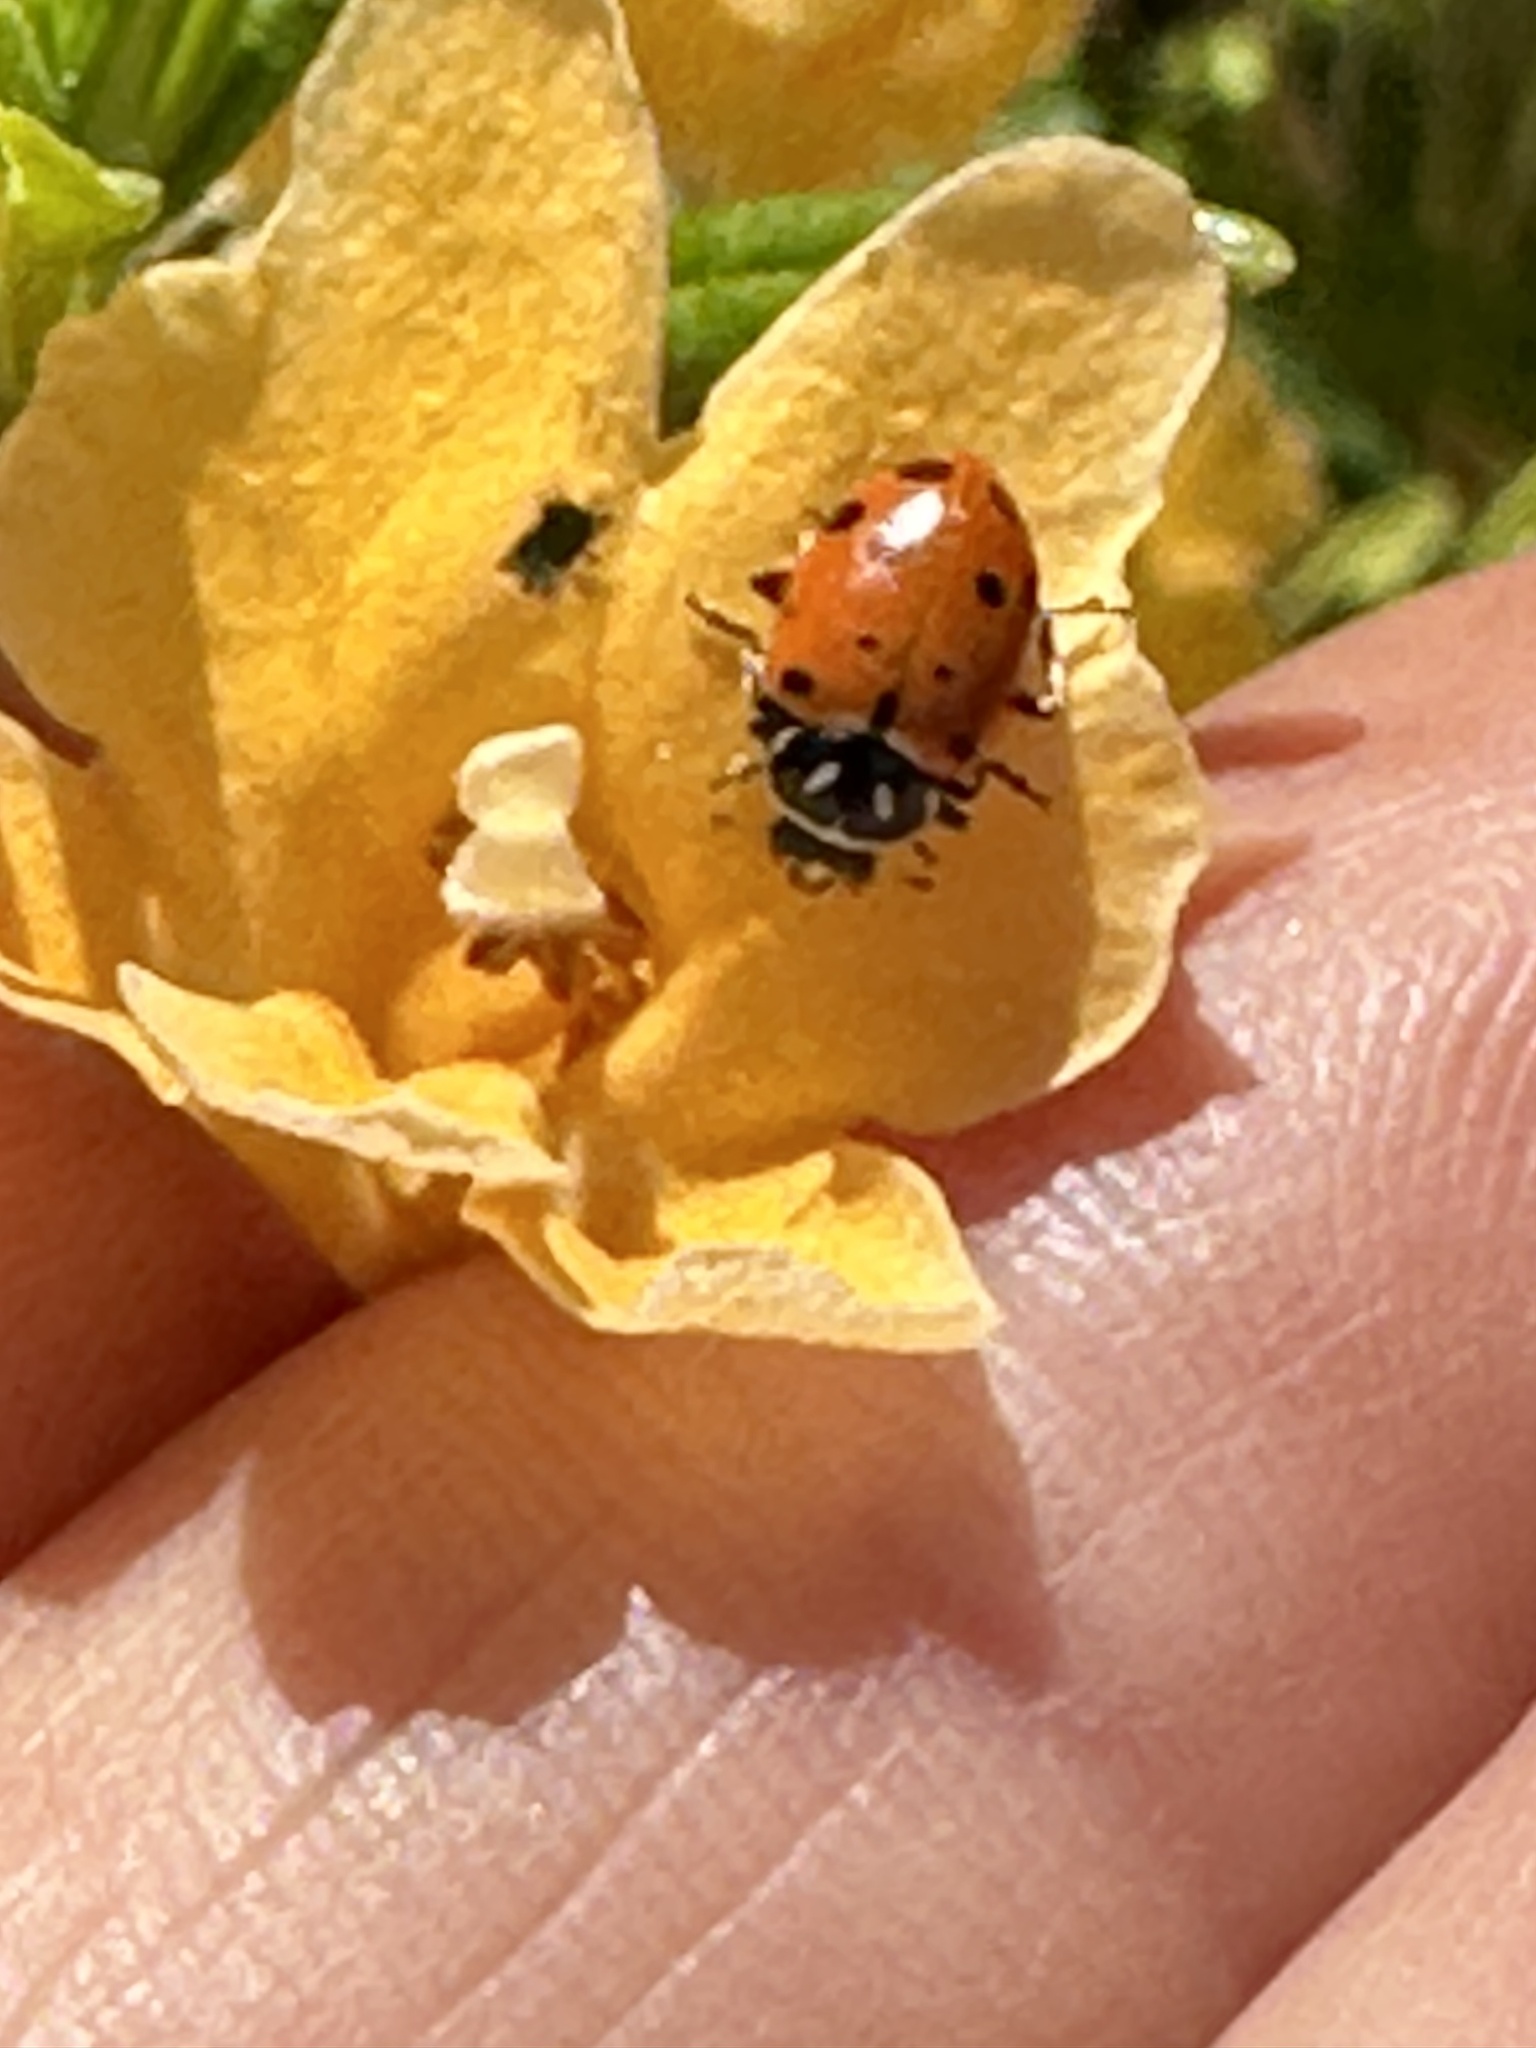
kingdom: Animalia
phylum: Arthropoda
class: Insecta
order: Coleoptera
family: Coccinellidae
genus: Hippodamia
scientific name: Hippodamia convergens
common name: Convergent lady beetle
